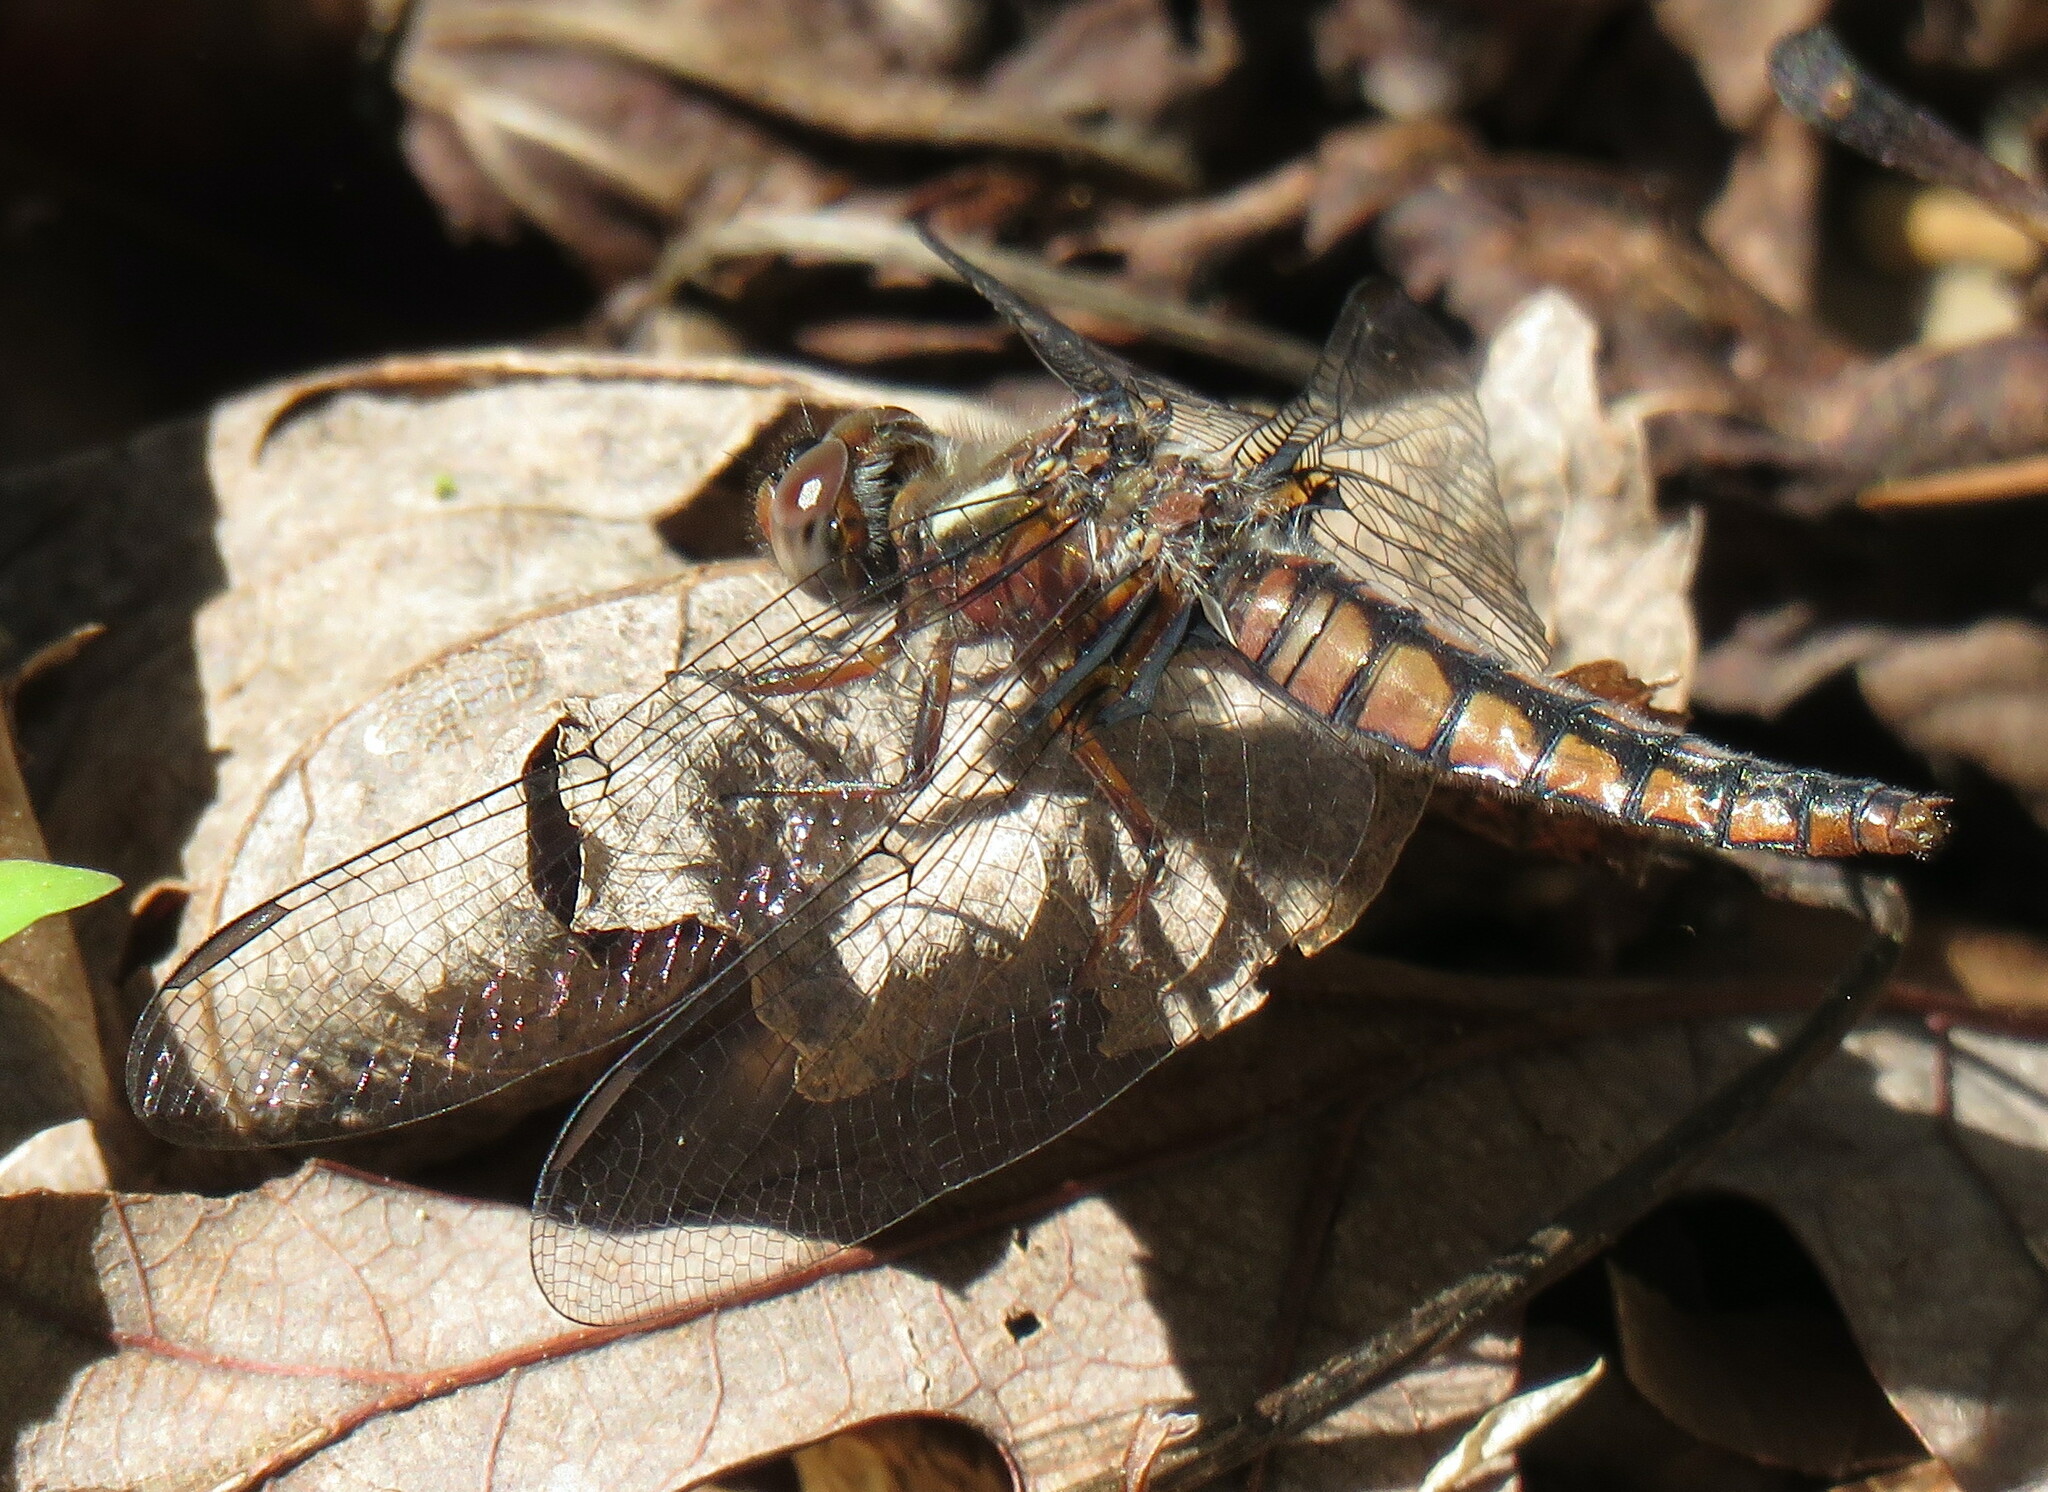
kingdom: Animalia
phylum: Arthropoda
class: Insecta
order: Odonata
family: Libellulidae
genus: Ladona
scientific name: Ladona deplanata
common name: Blue corporal
